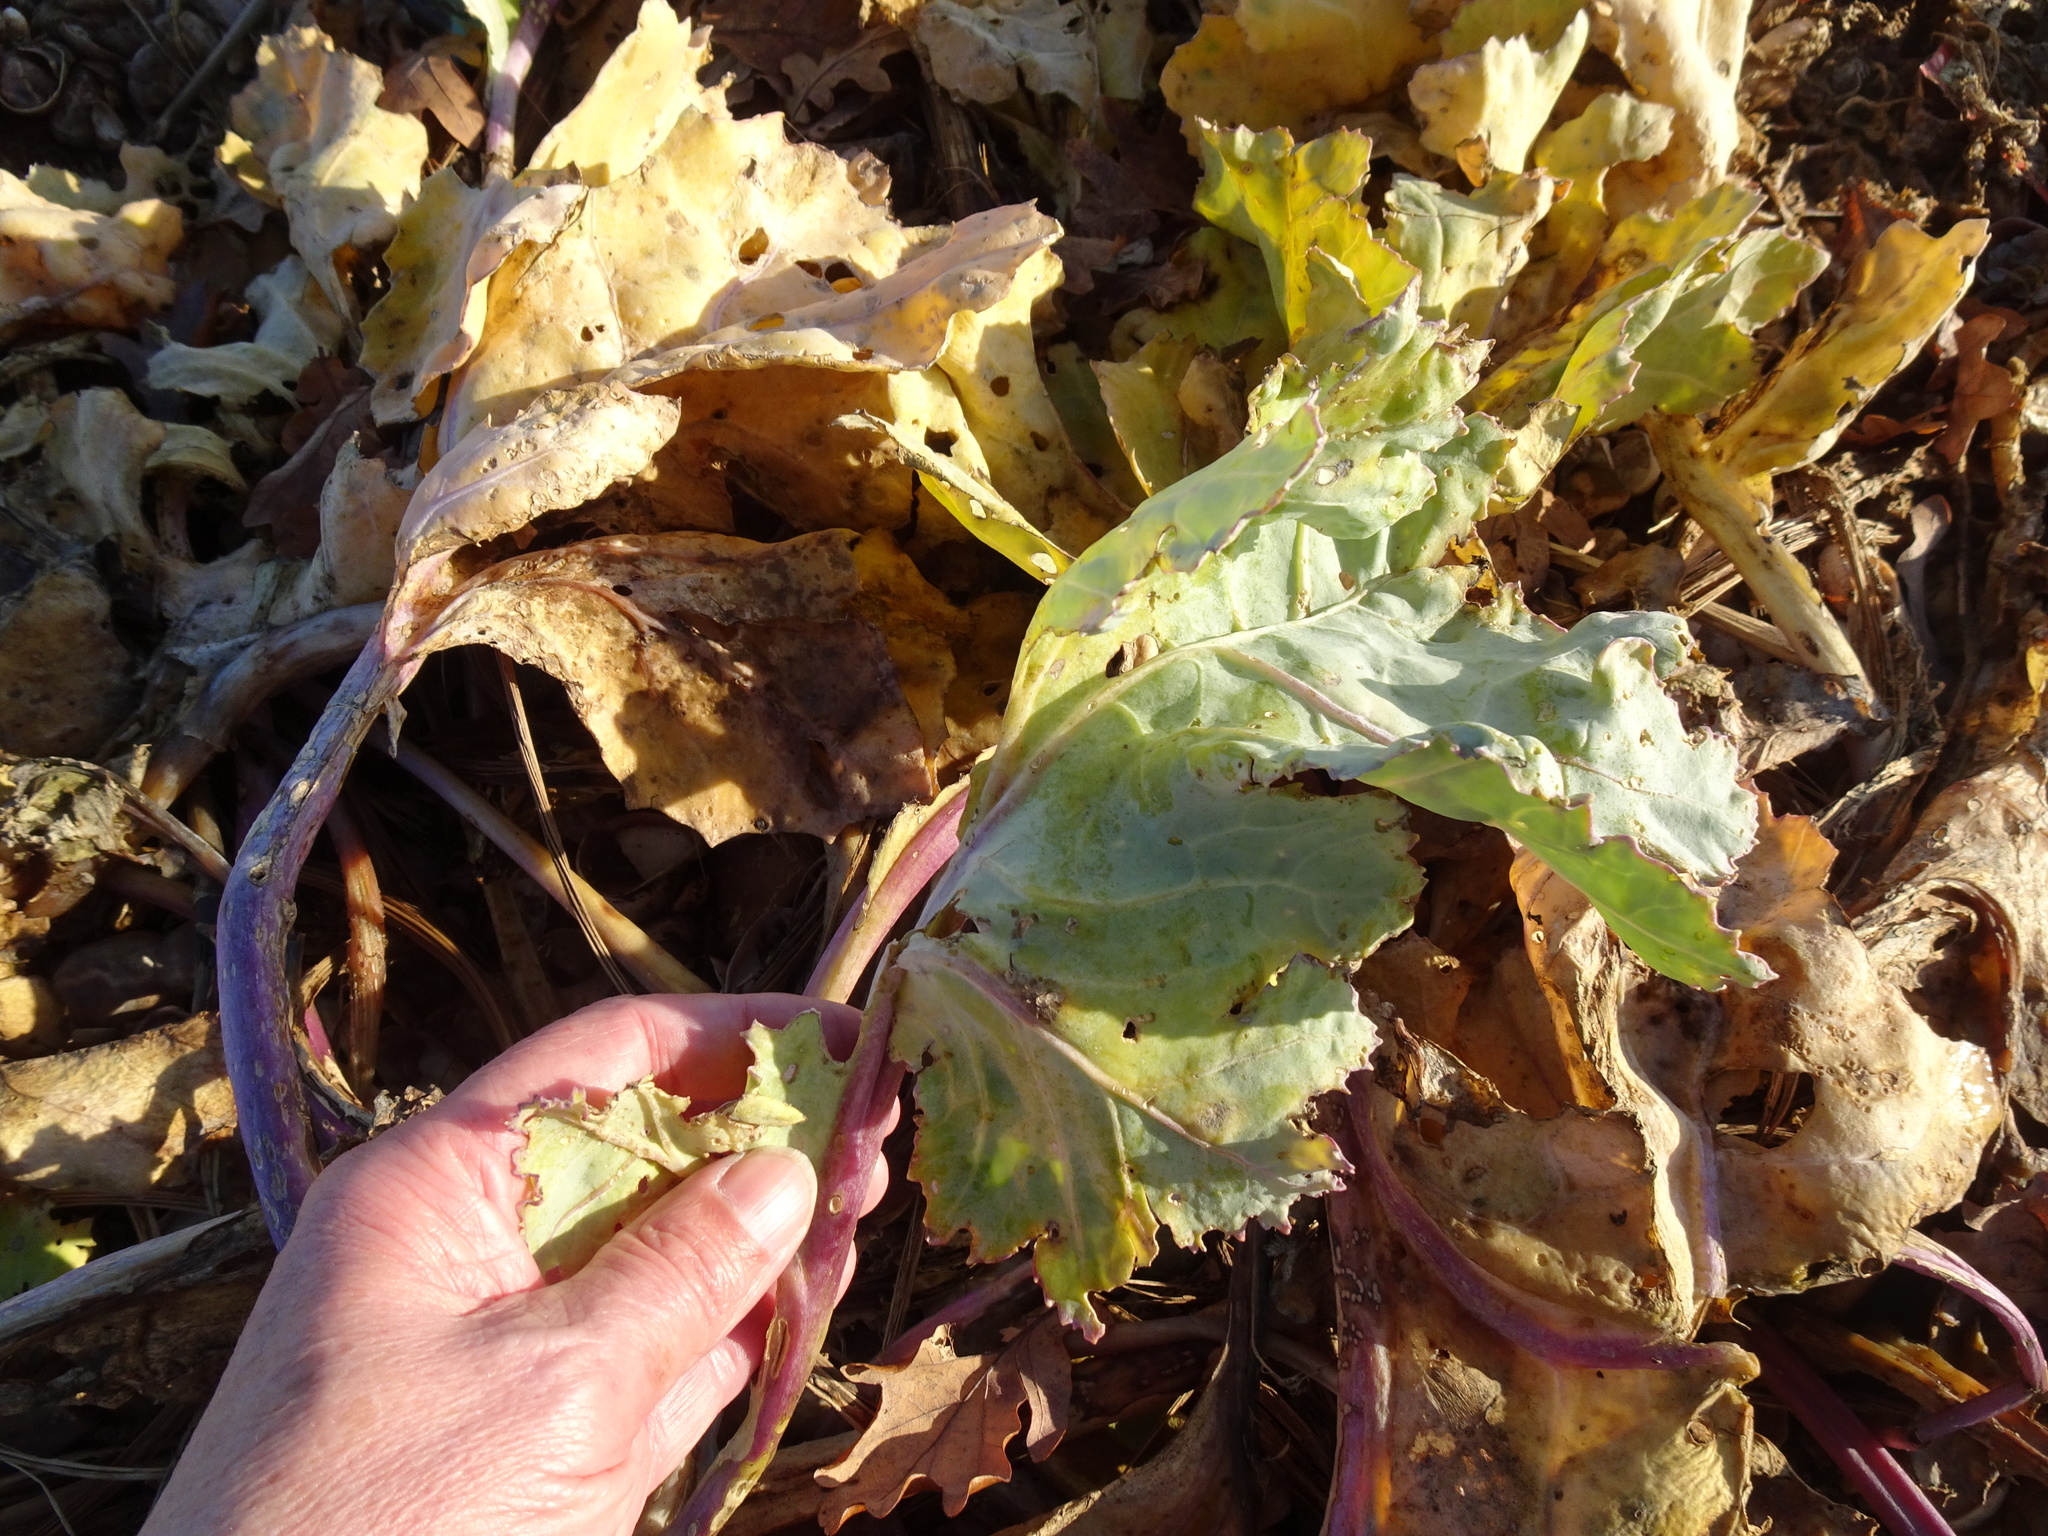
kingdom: Plantae
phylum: Tracheophyta
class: Magnoliopsida
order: Brassicales
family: Brassicaceae
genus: Crambe
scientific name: Crambe maritima
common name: Sea-kale
